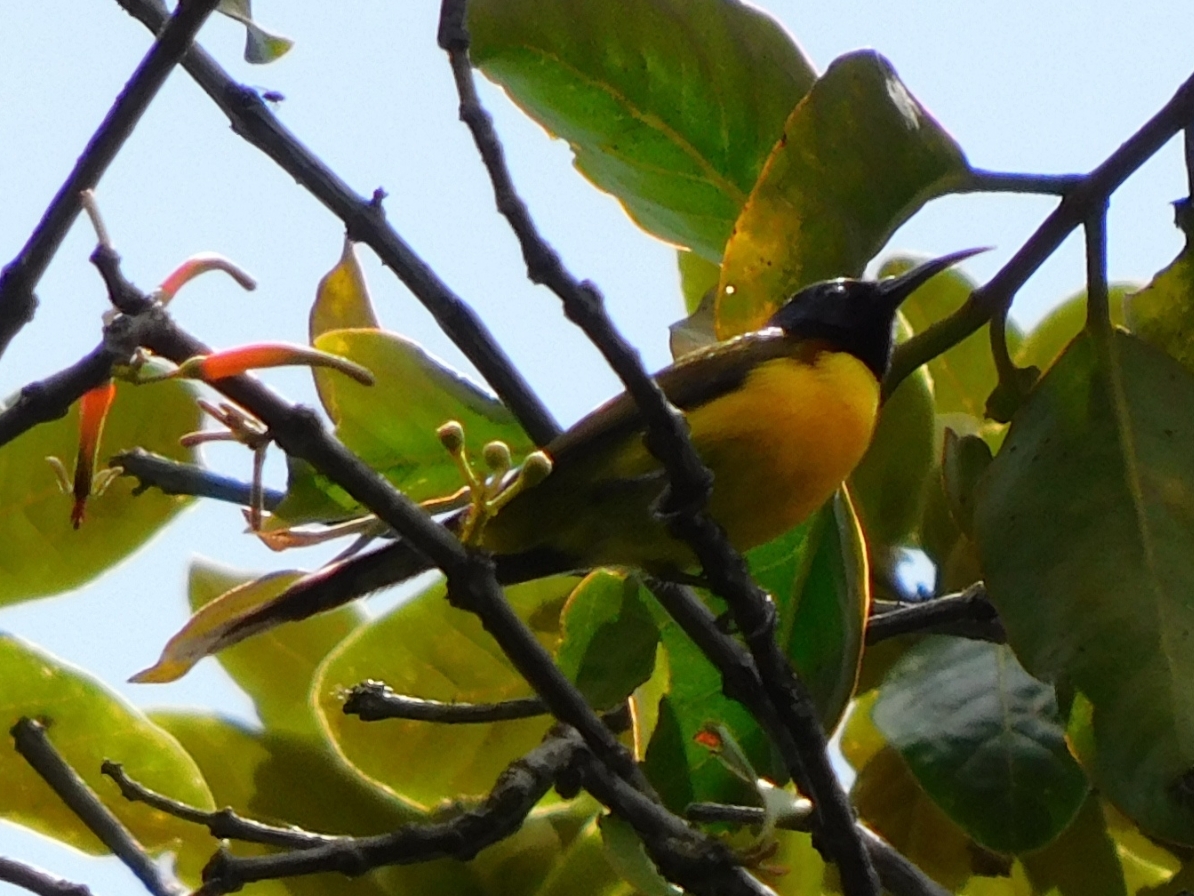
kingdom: Animalia
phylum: Chordata
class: Aves
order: Passeriformes
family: Nectariniidae
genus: Aethopyga
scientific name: Aethopyga nipalensis
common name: Green-tailed sunbird
